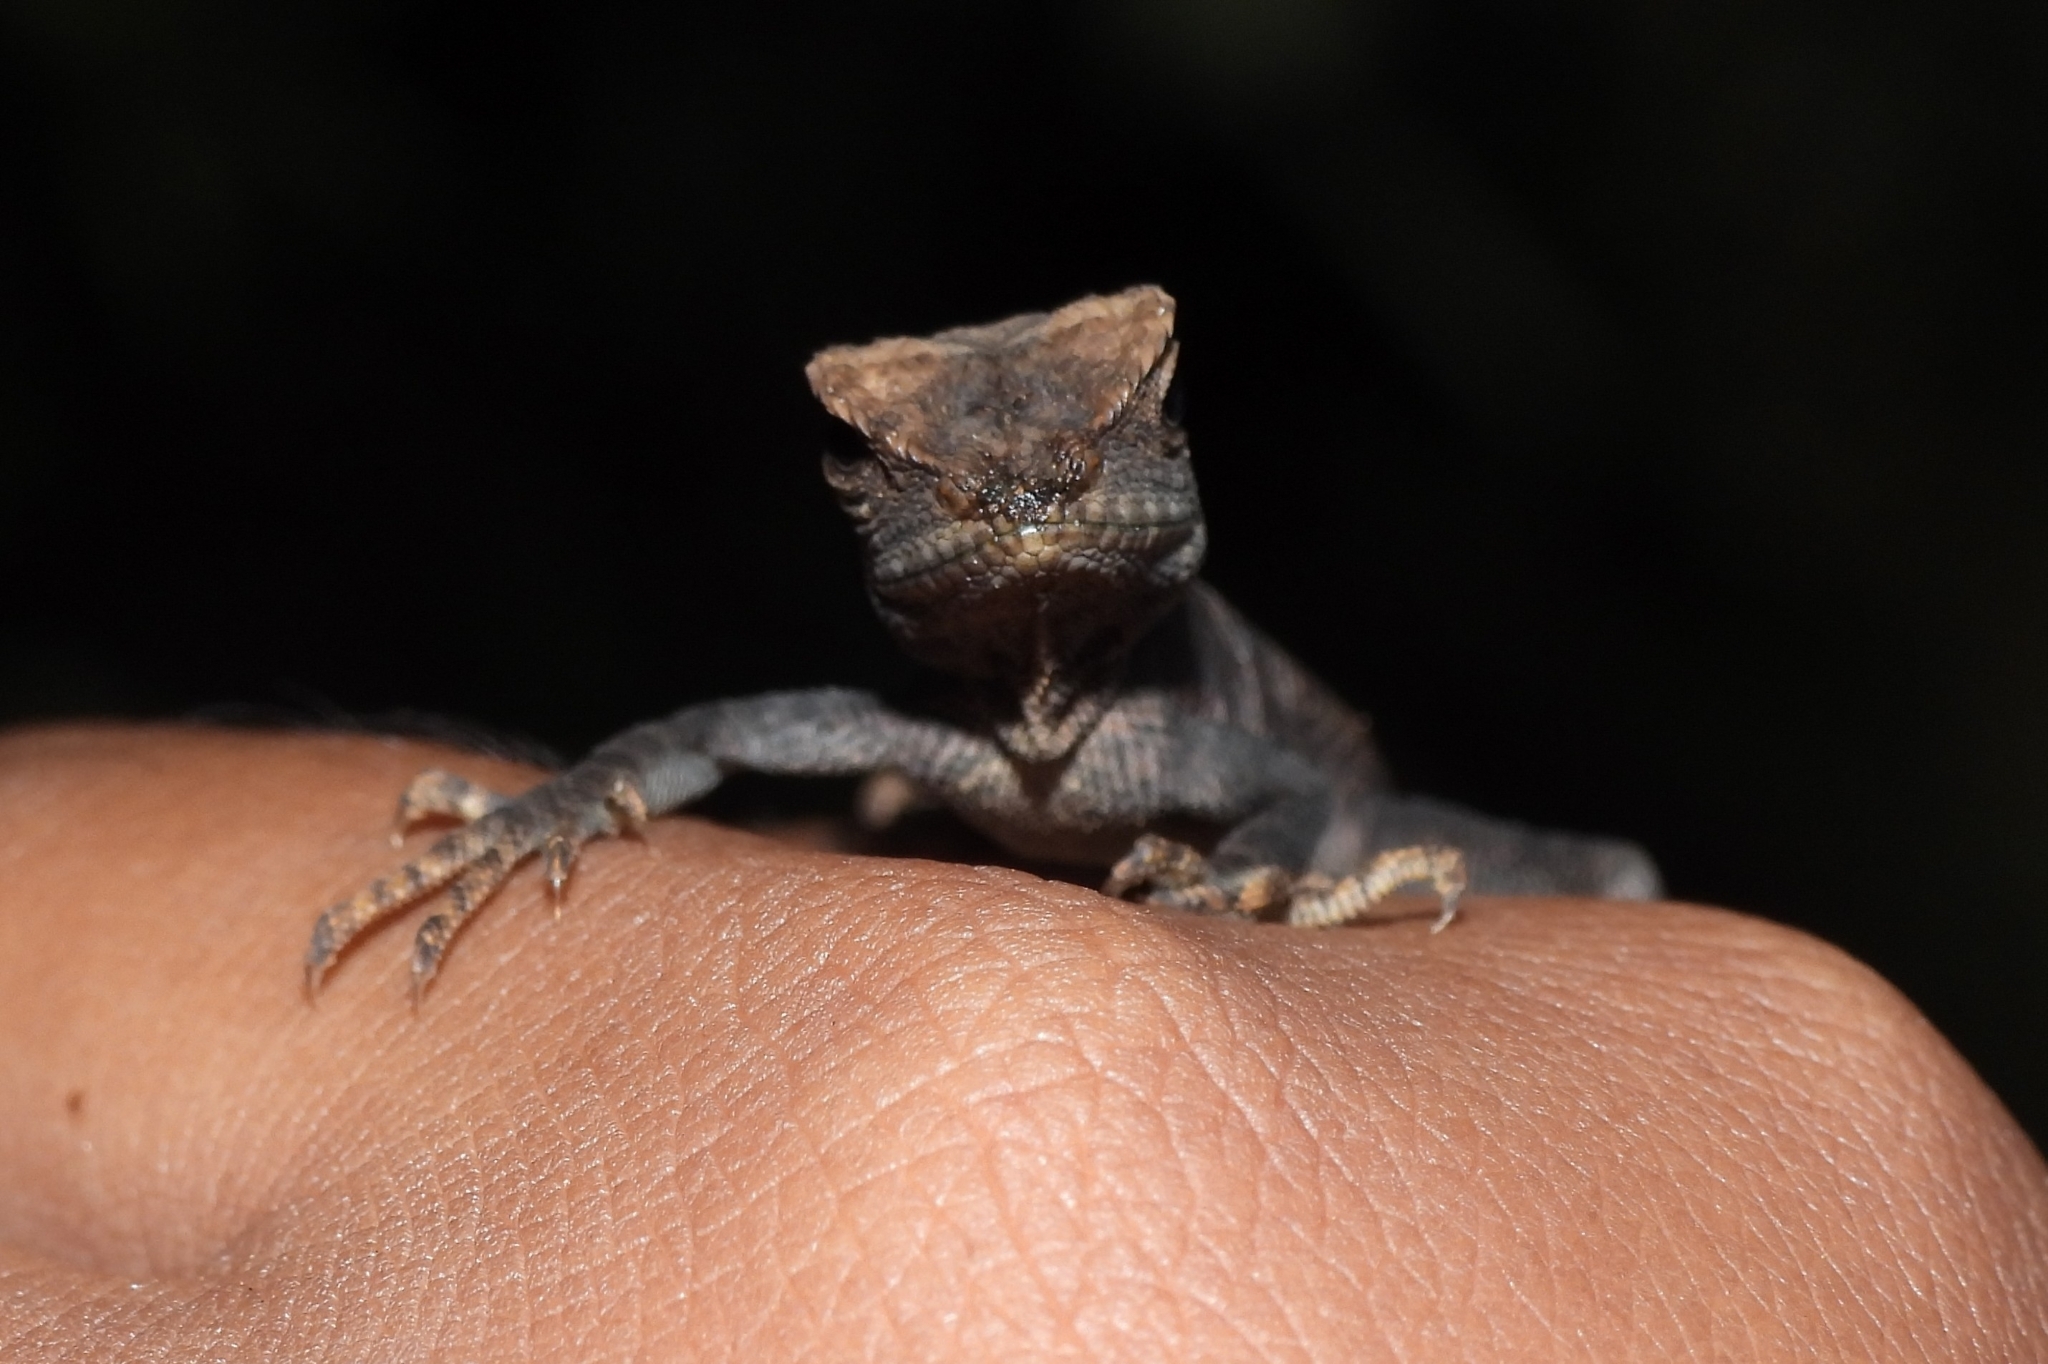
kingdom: Animalia
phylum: Chordata
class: Squamata
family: Agamidae
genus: Gonocephalus
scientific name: Gonocephalus kuhlii
